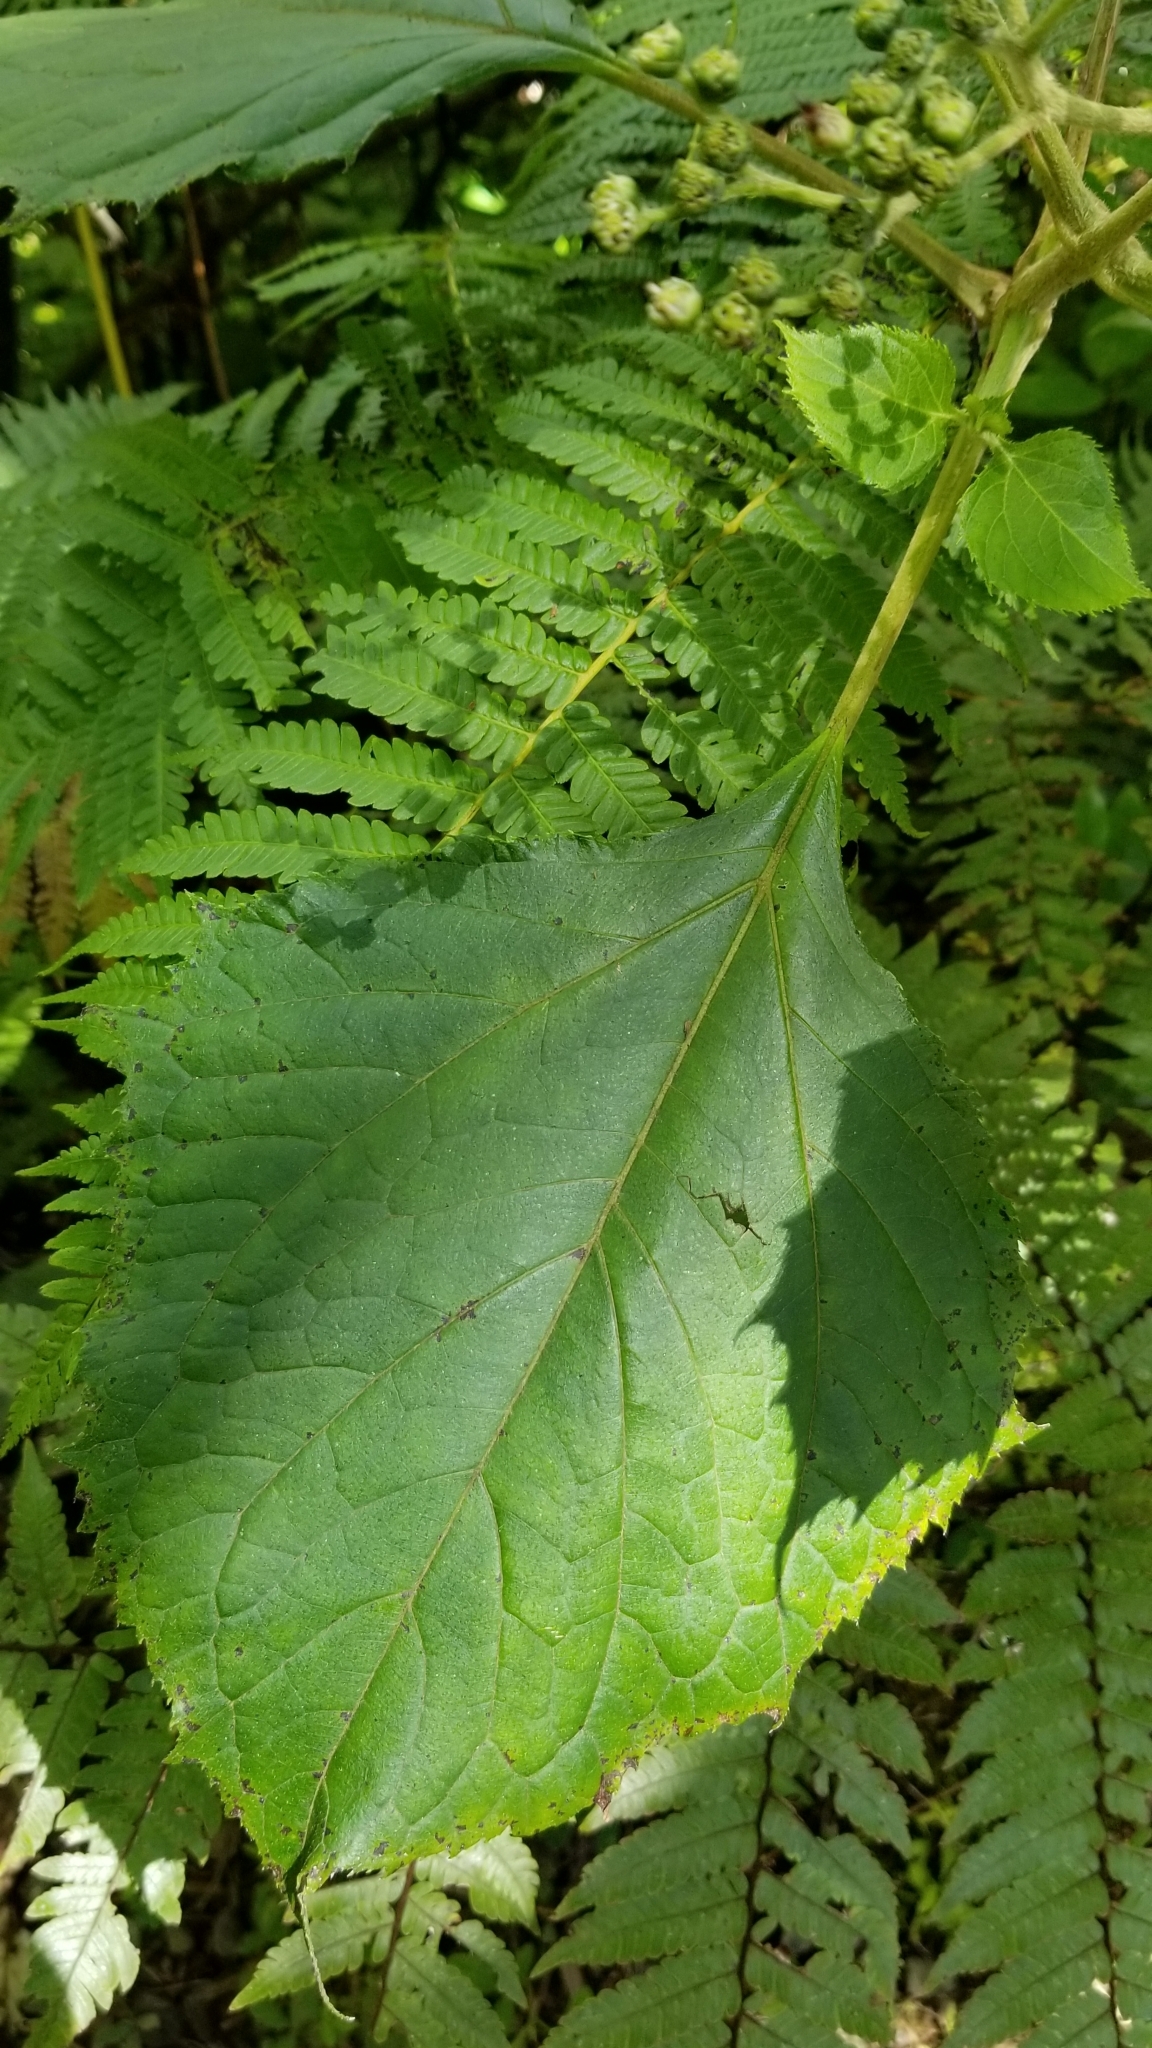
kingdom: Plantae
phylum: Tracheophyta
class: Magnoliopsida
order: Asterales
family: Asteraceae
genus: Clibadium
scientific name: Clibadium erosum
